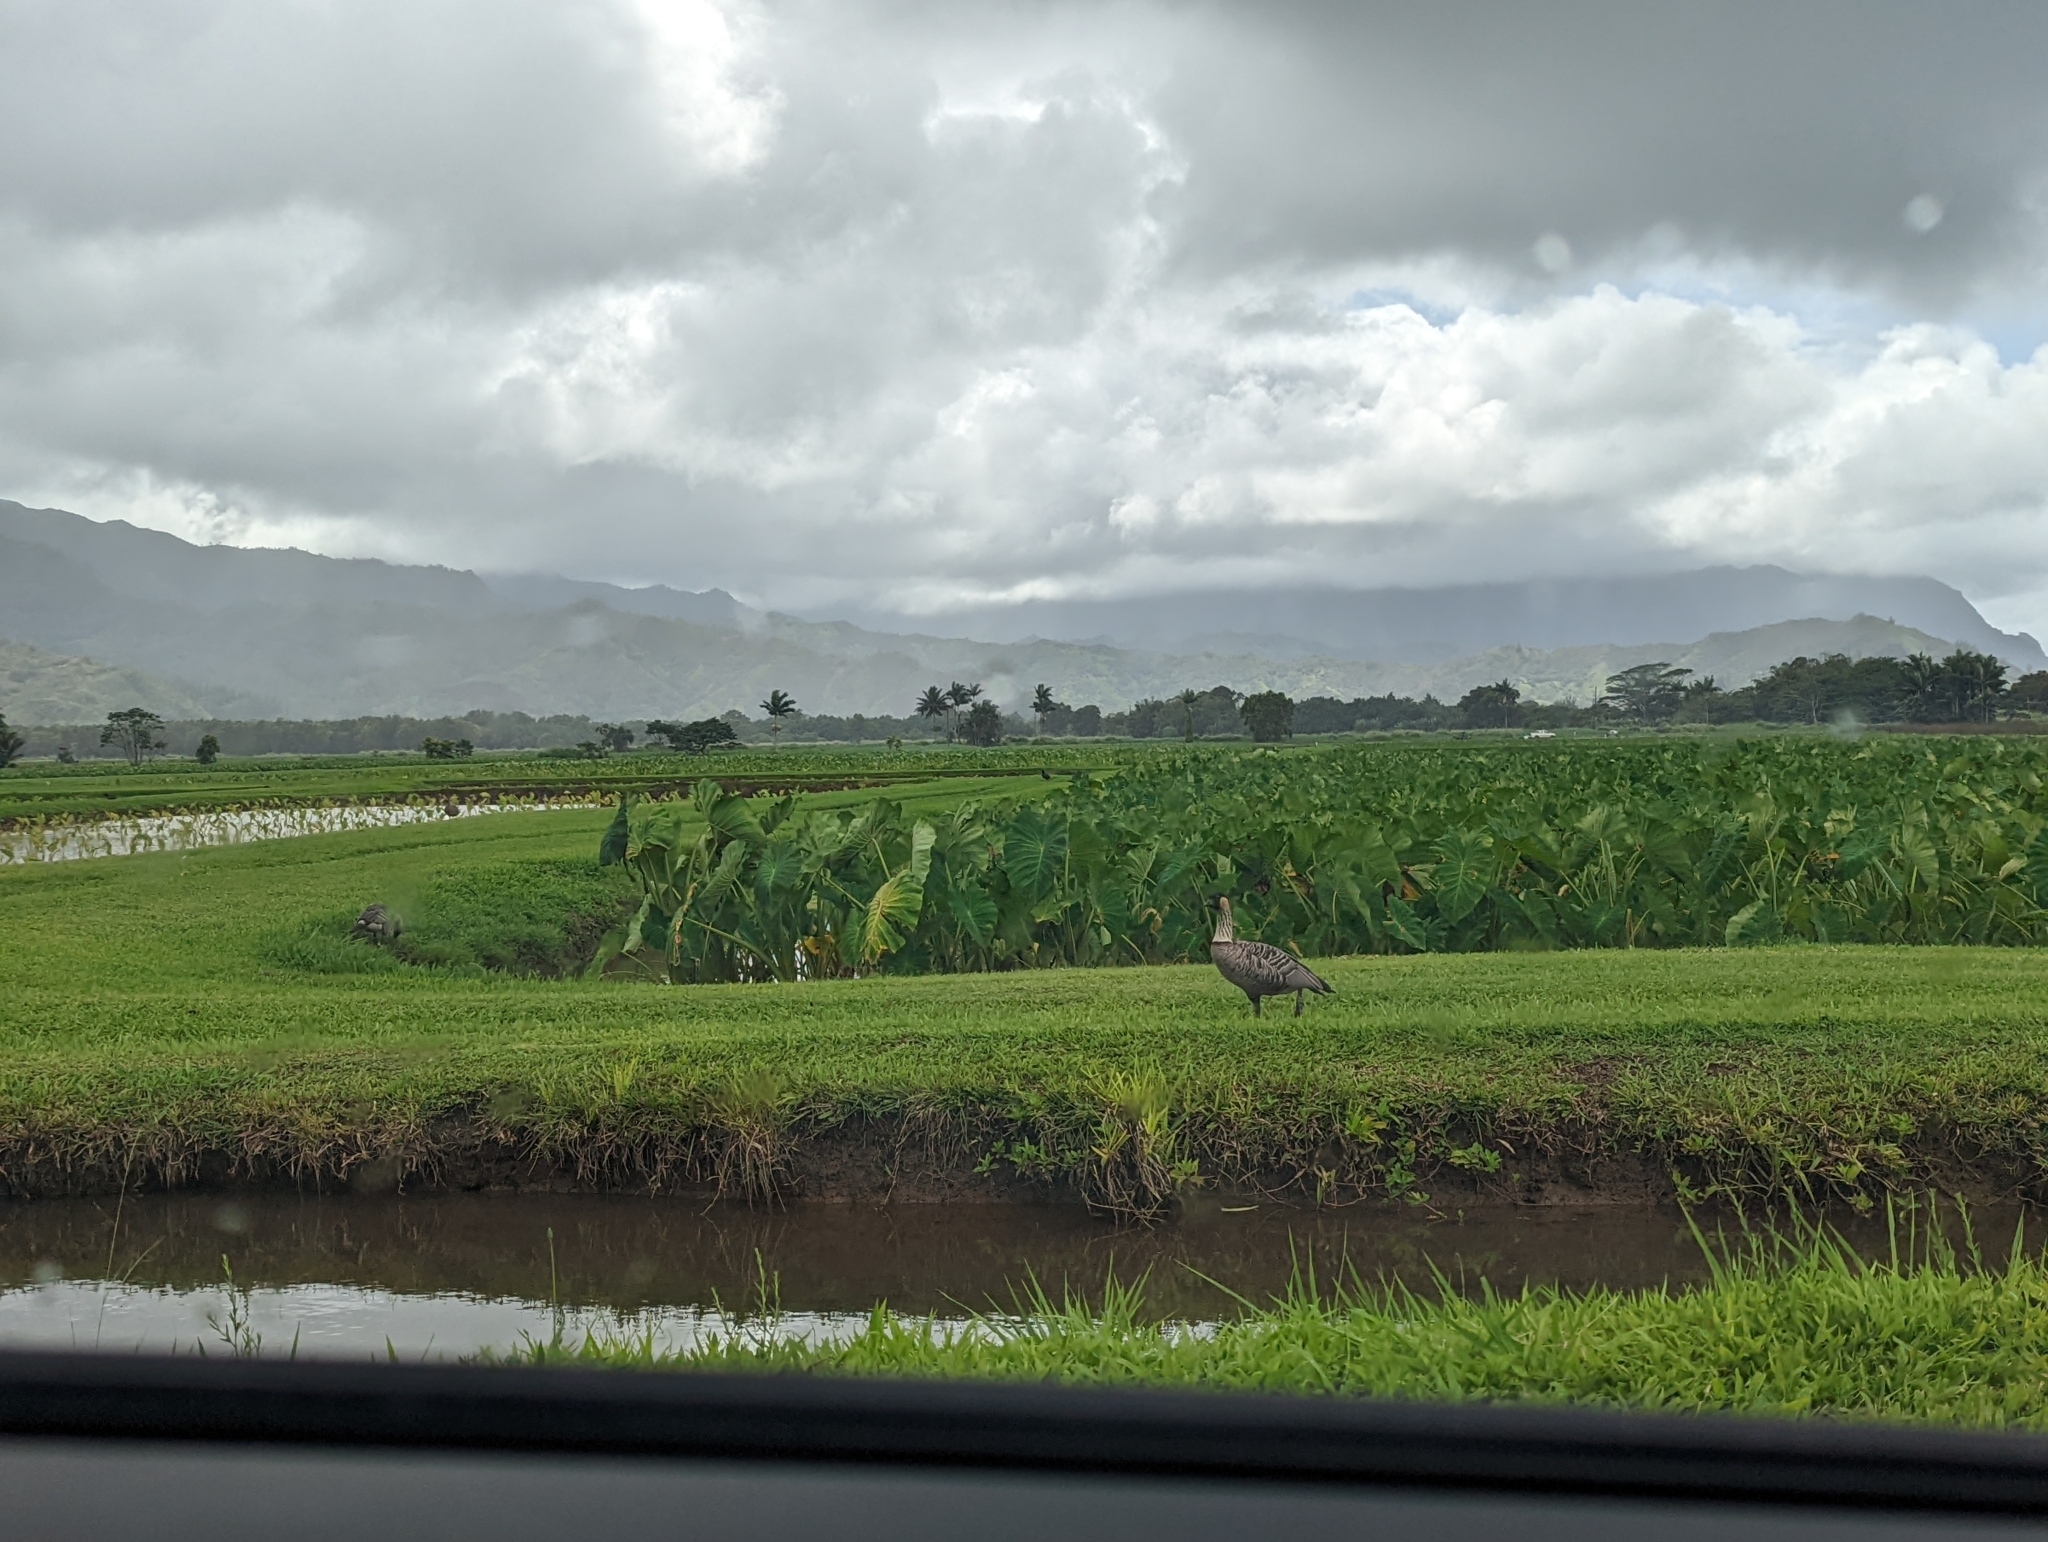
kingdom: Animalia
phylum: Chordata
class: Aves
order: Anseriformes
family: Anatidae
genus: Branta
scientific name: Branta sandvicensis
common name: Nene
